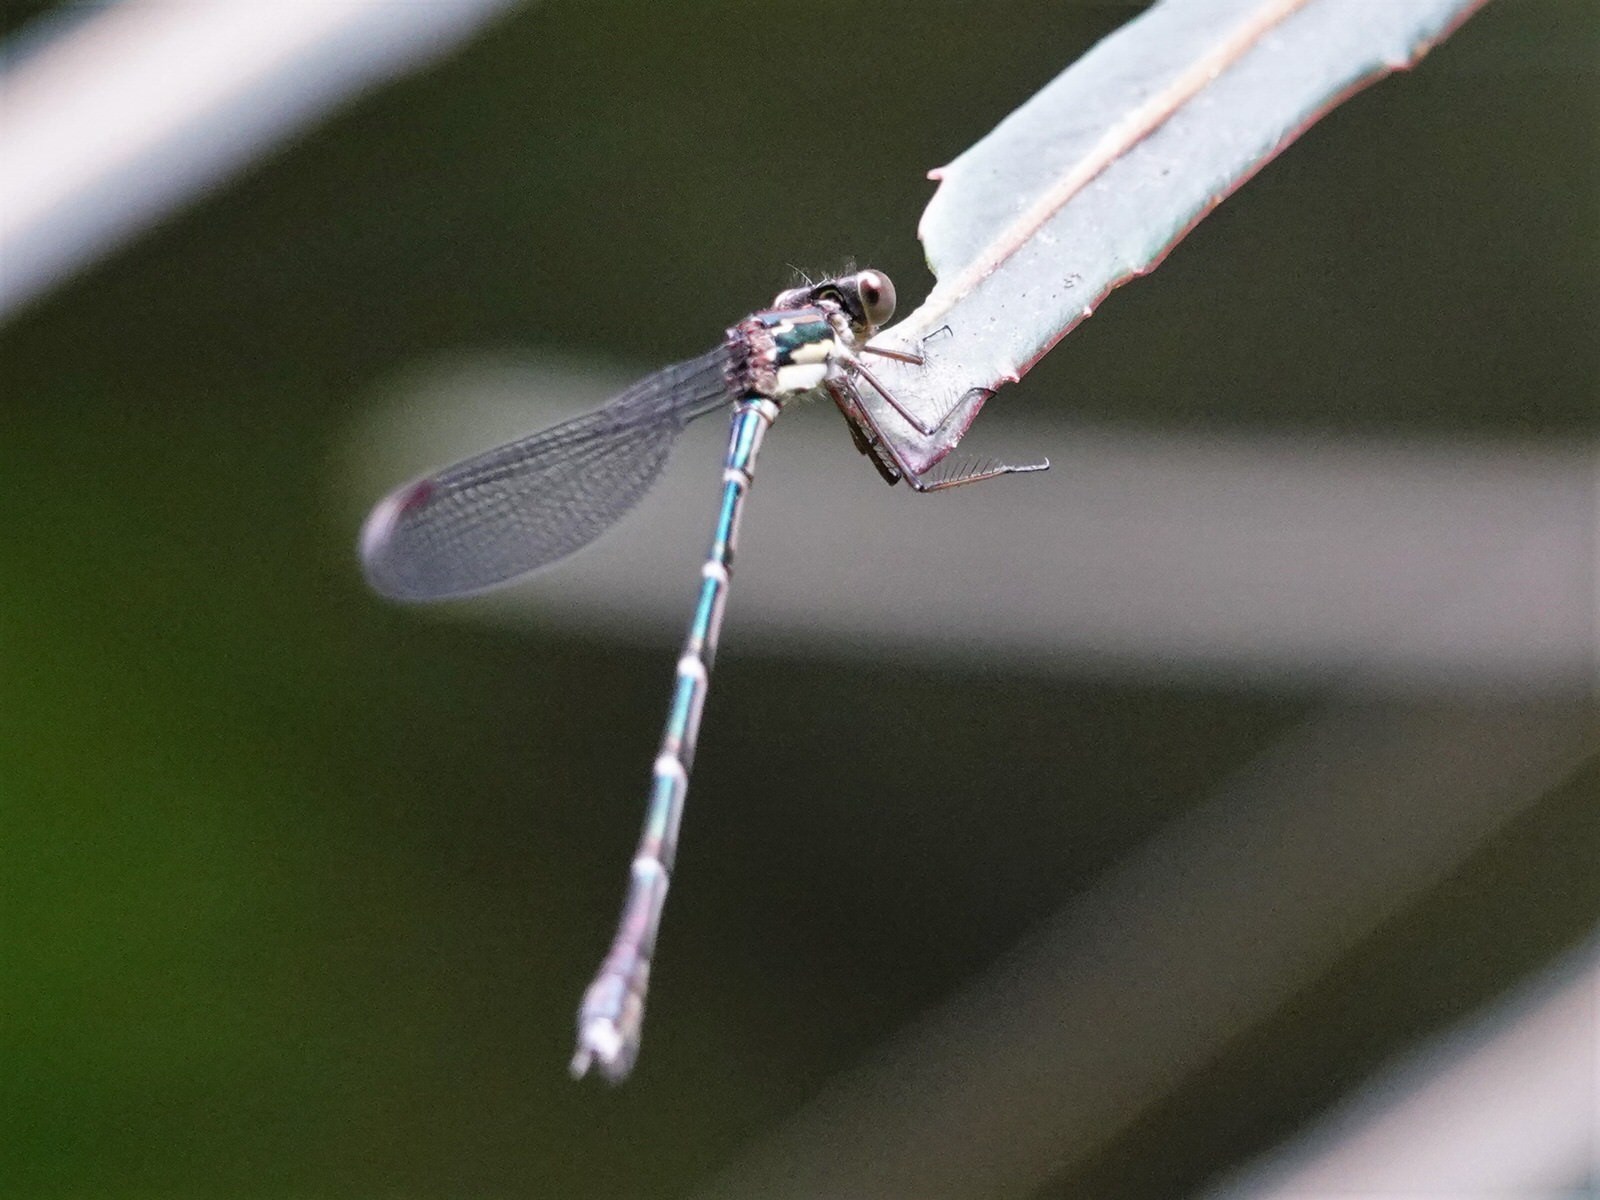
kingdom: Animalia
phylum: Arthropoda
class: Insecta
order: Odonata
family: Lestidae
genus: Austrolestes
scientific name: Austrolestes colensonis
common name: Blue damselfly
